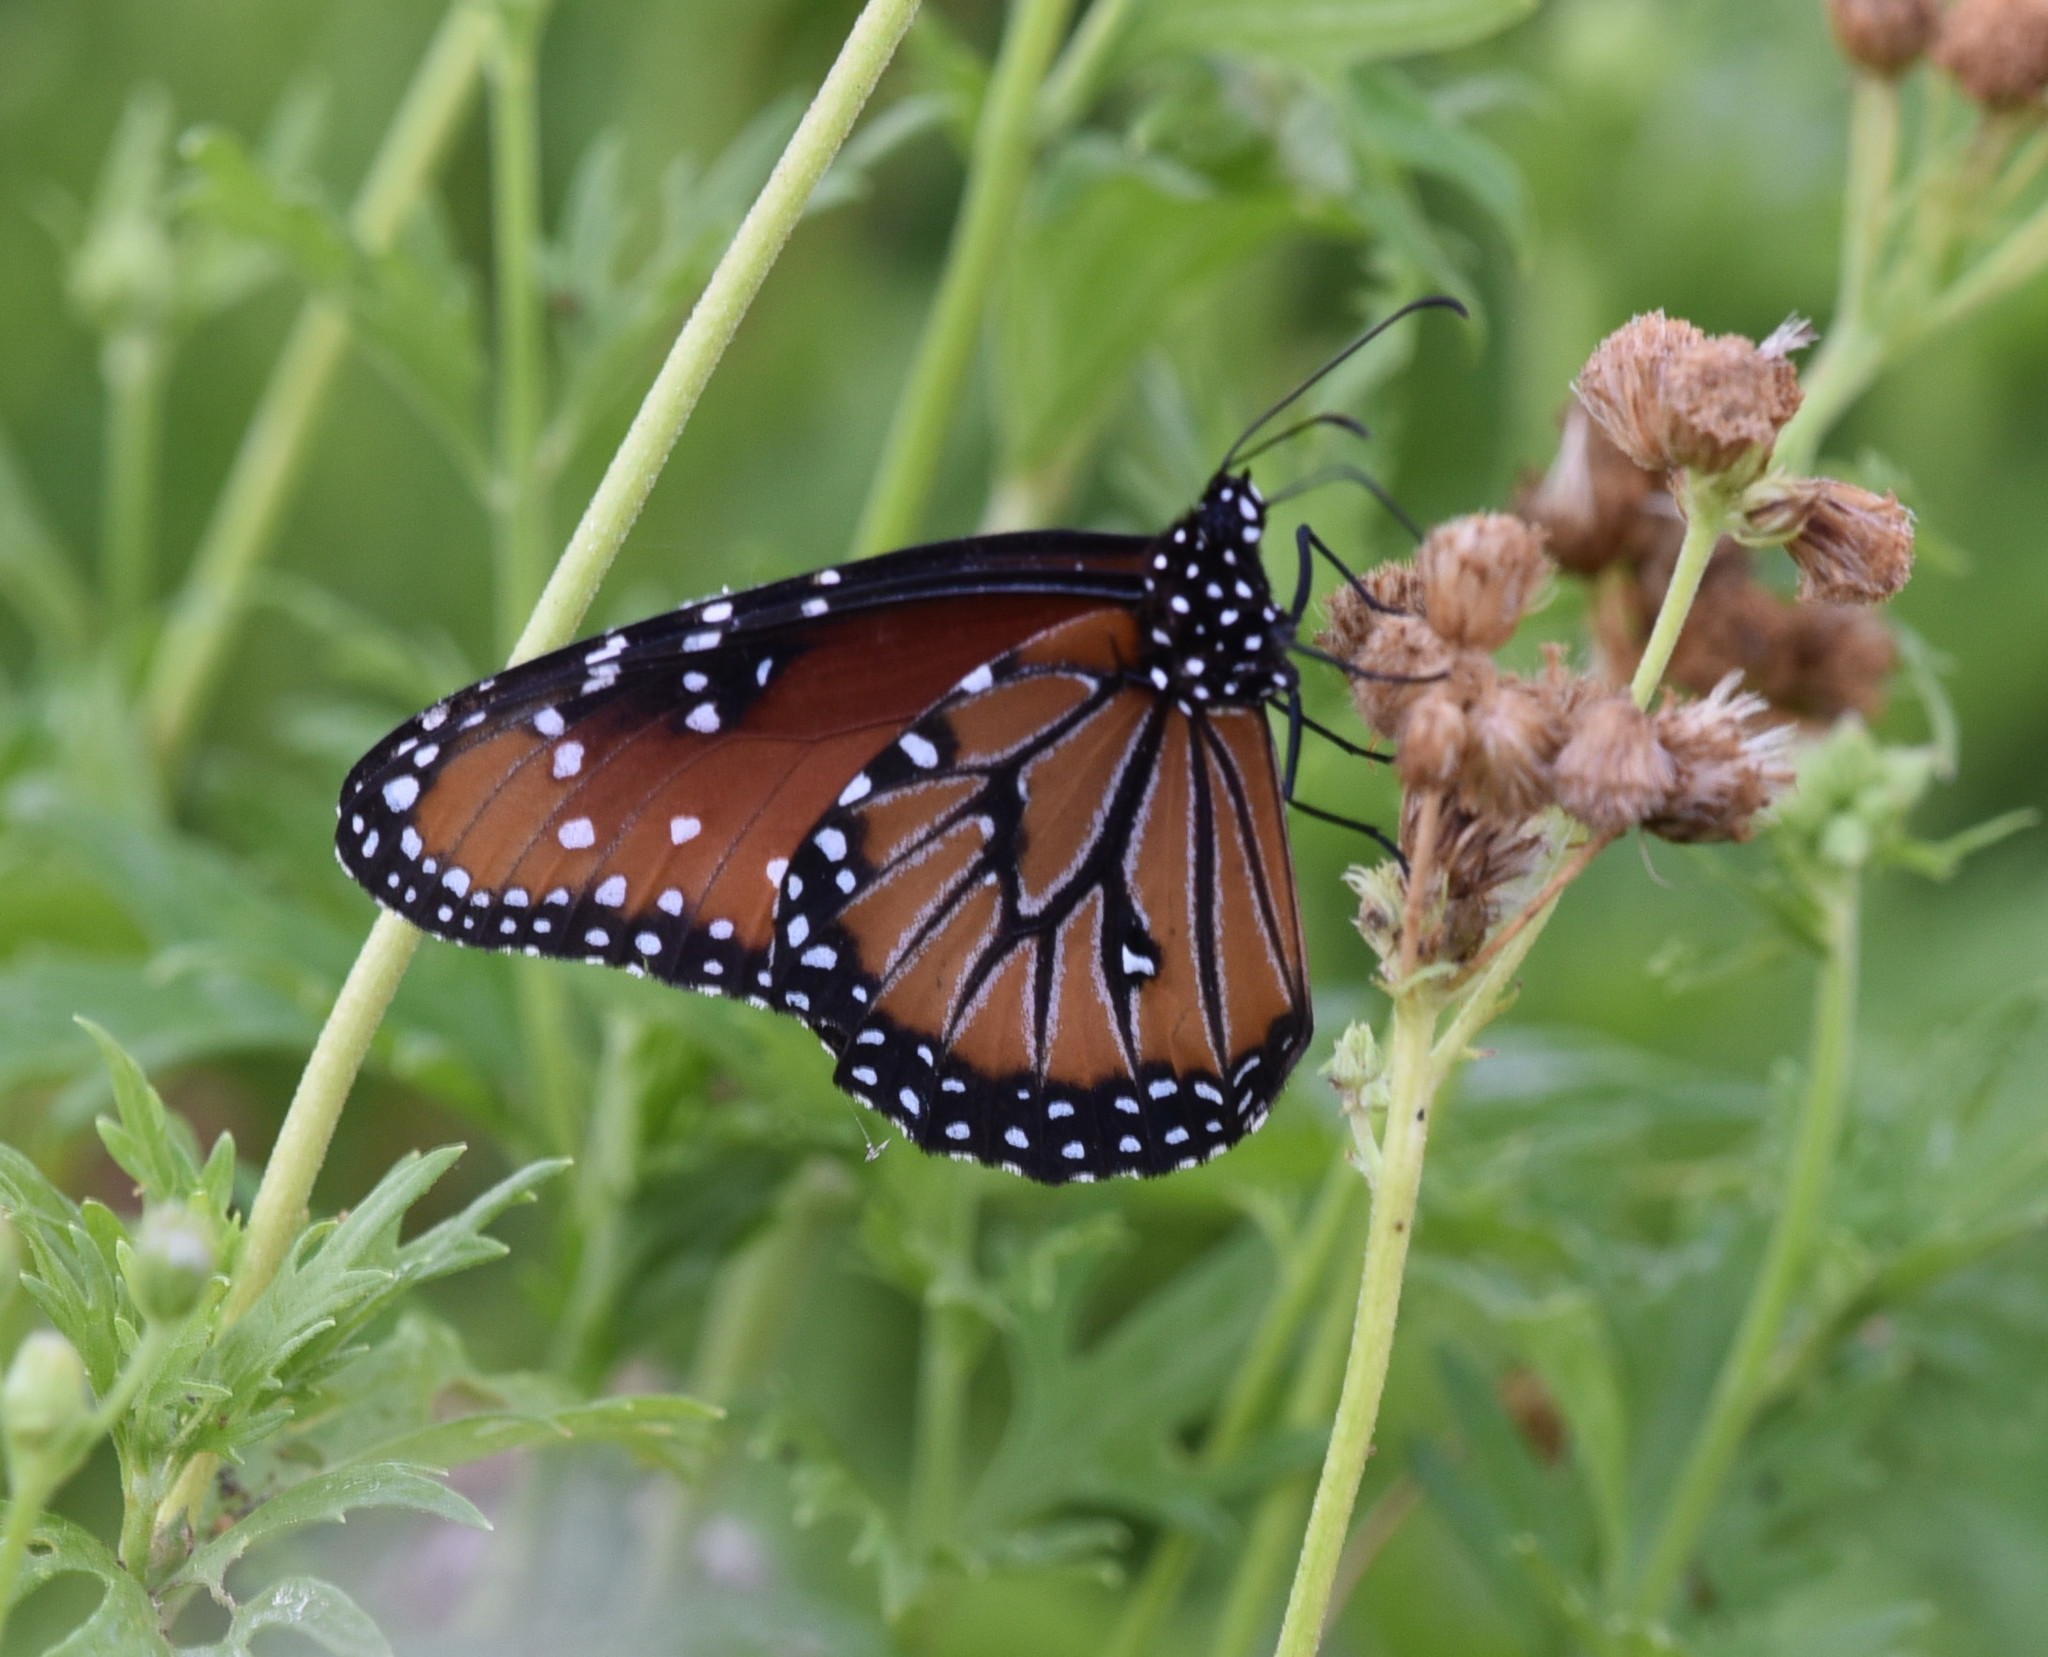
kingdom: Animalia
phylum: Arthropoda
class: Insecta
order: Lepidoptera
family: Nymphalidae
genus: Danaus
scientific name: Danaus gilippus
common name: Queen
